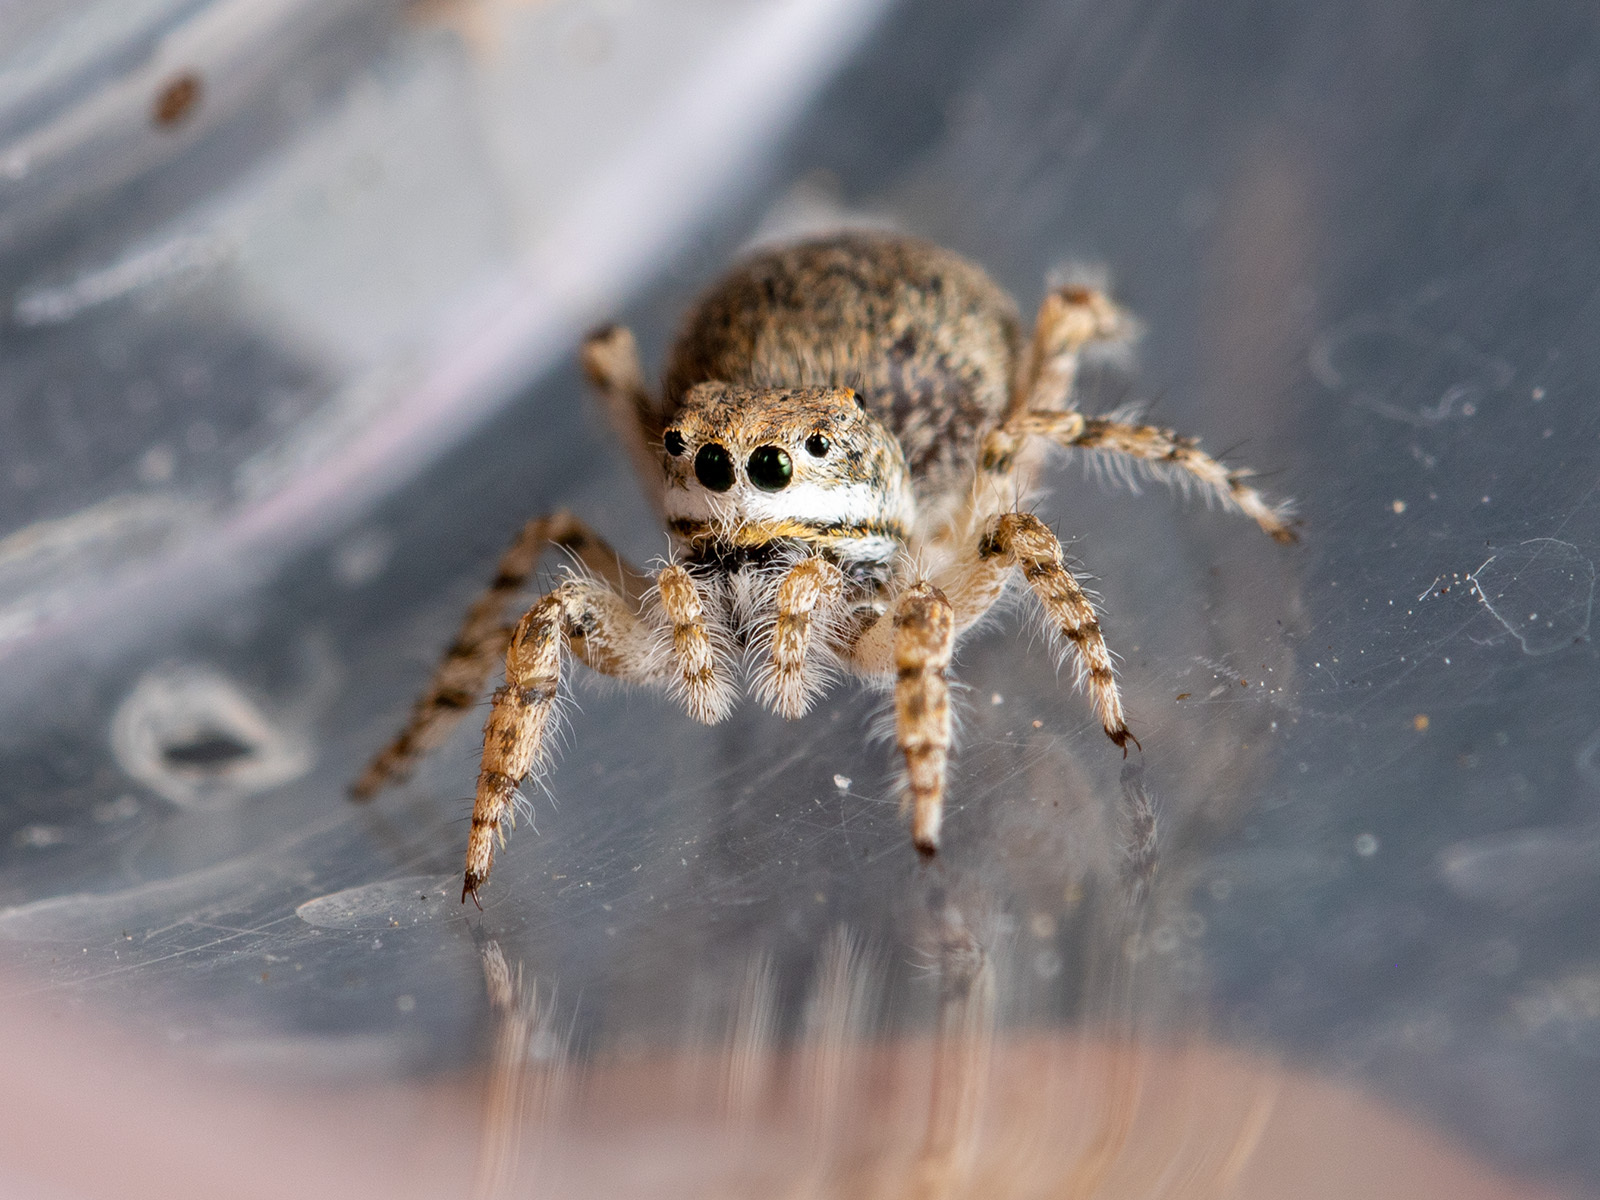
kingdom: Animalia
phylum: Arthropoda
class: Arachnida
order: Araneae
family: Salticidae
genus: Yllenus
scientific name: Yllenus uiguricus
